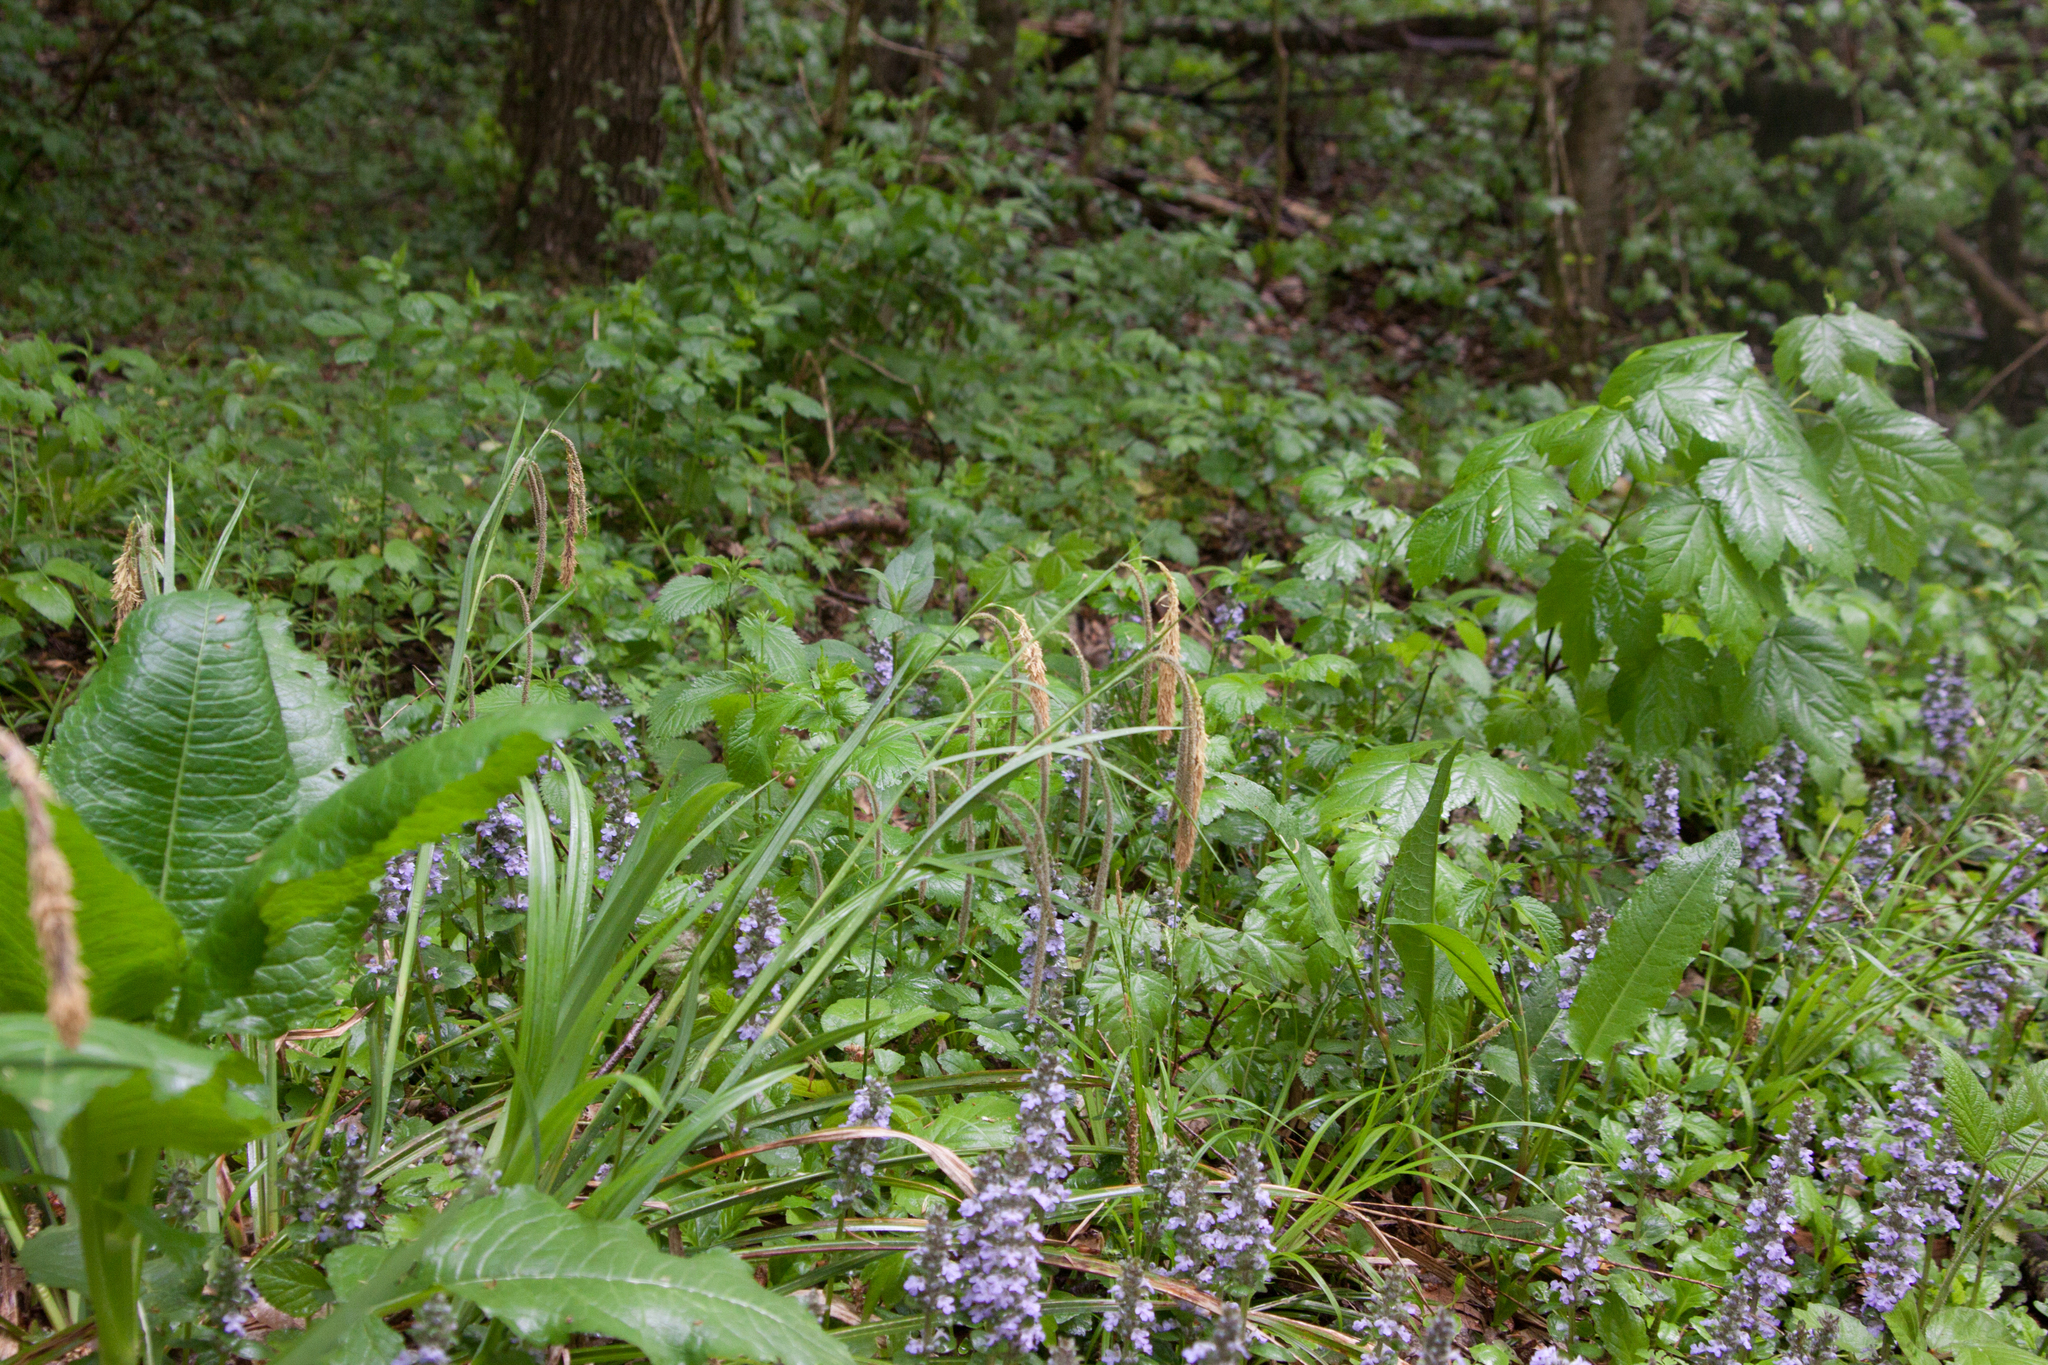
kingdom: Plantae
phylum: Tracheophyta
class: Liliopsida
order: Poales
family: Cyperaceae
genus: Carex
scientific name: Carex pendula
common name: Pendulous sedge
